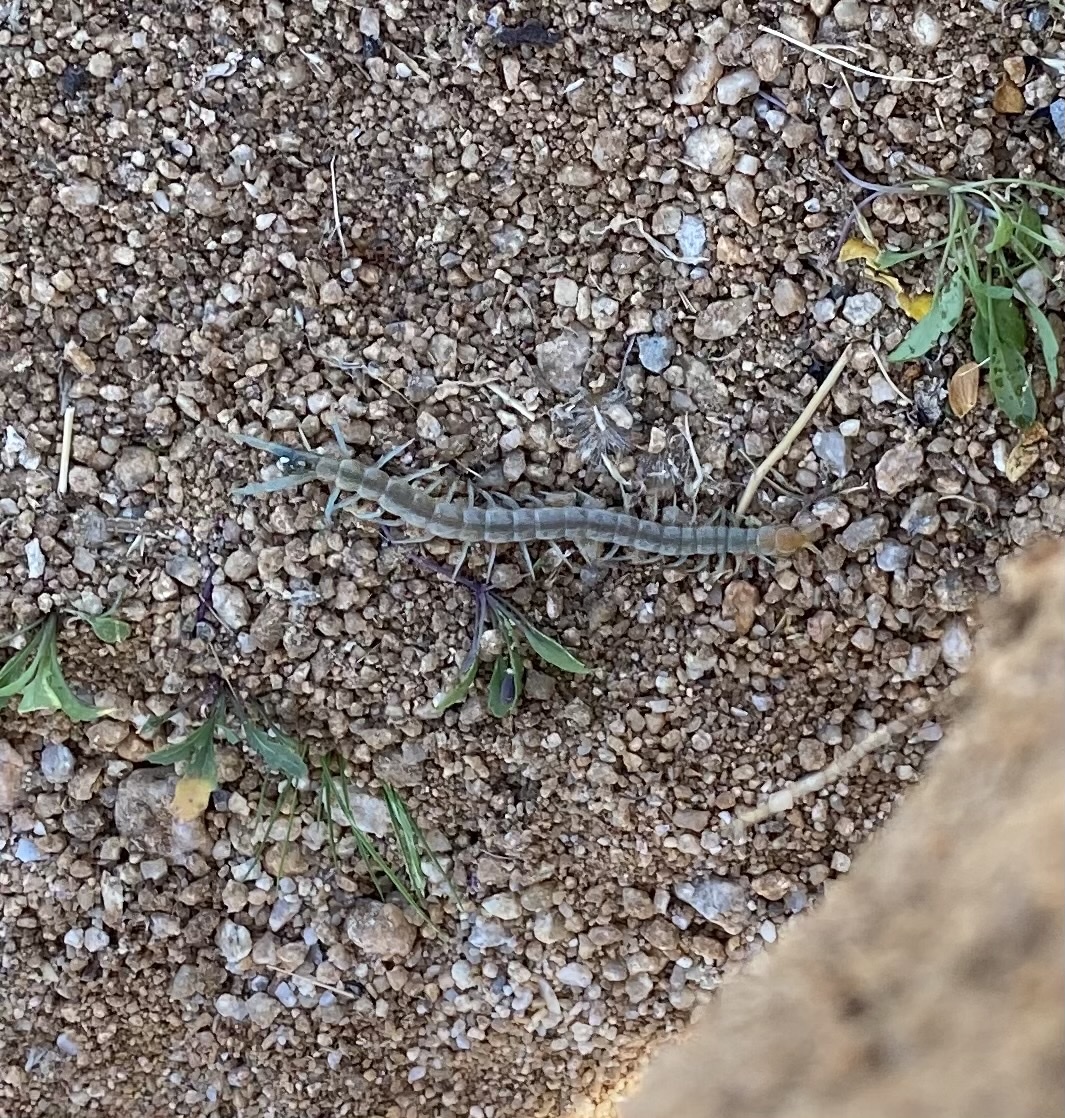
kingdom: Animalia
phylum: Arthropoda
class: Chilopoda
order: Scolopendromorpha
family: Scolopendridae
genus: Scolopendra
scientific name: Scolopendra polymorpha
